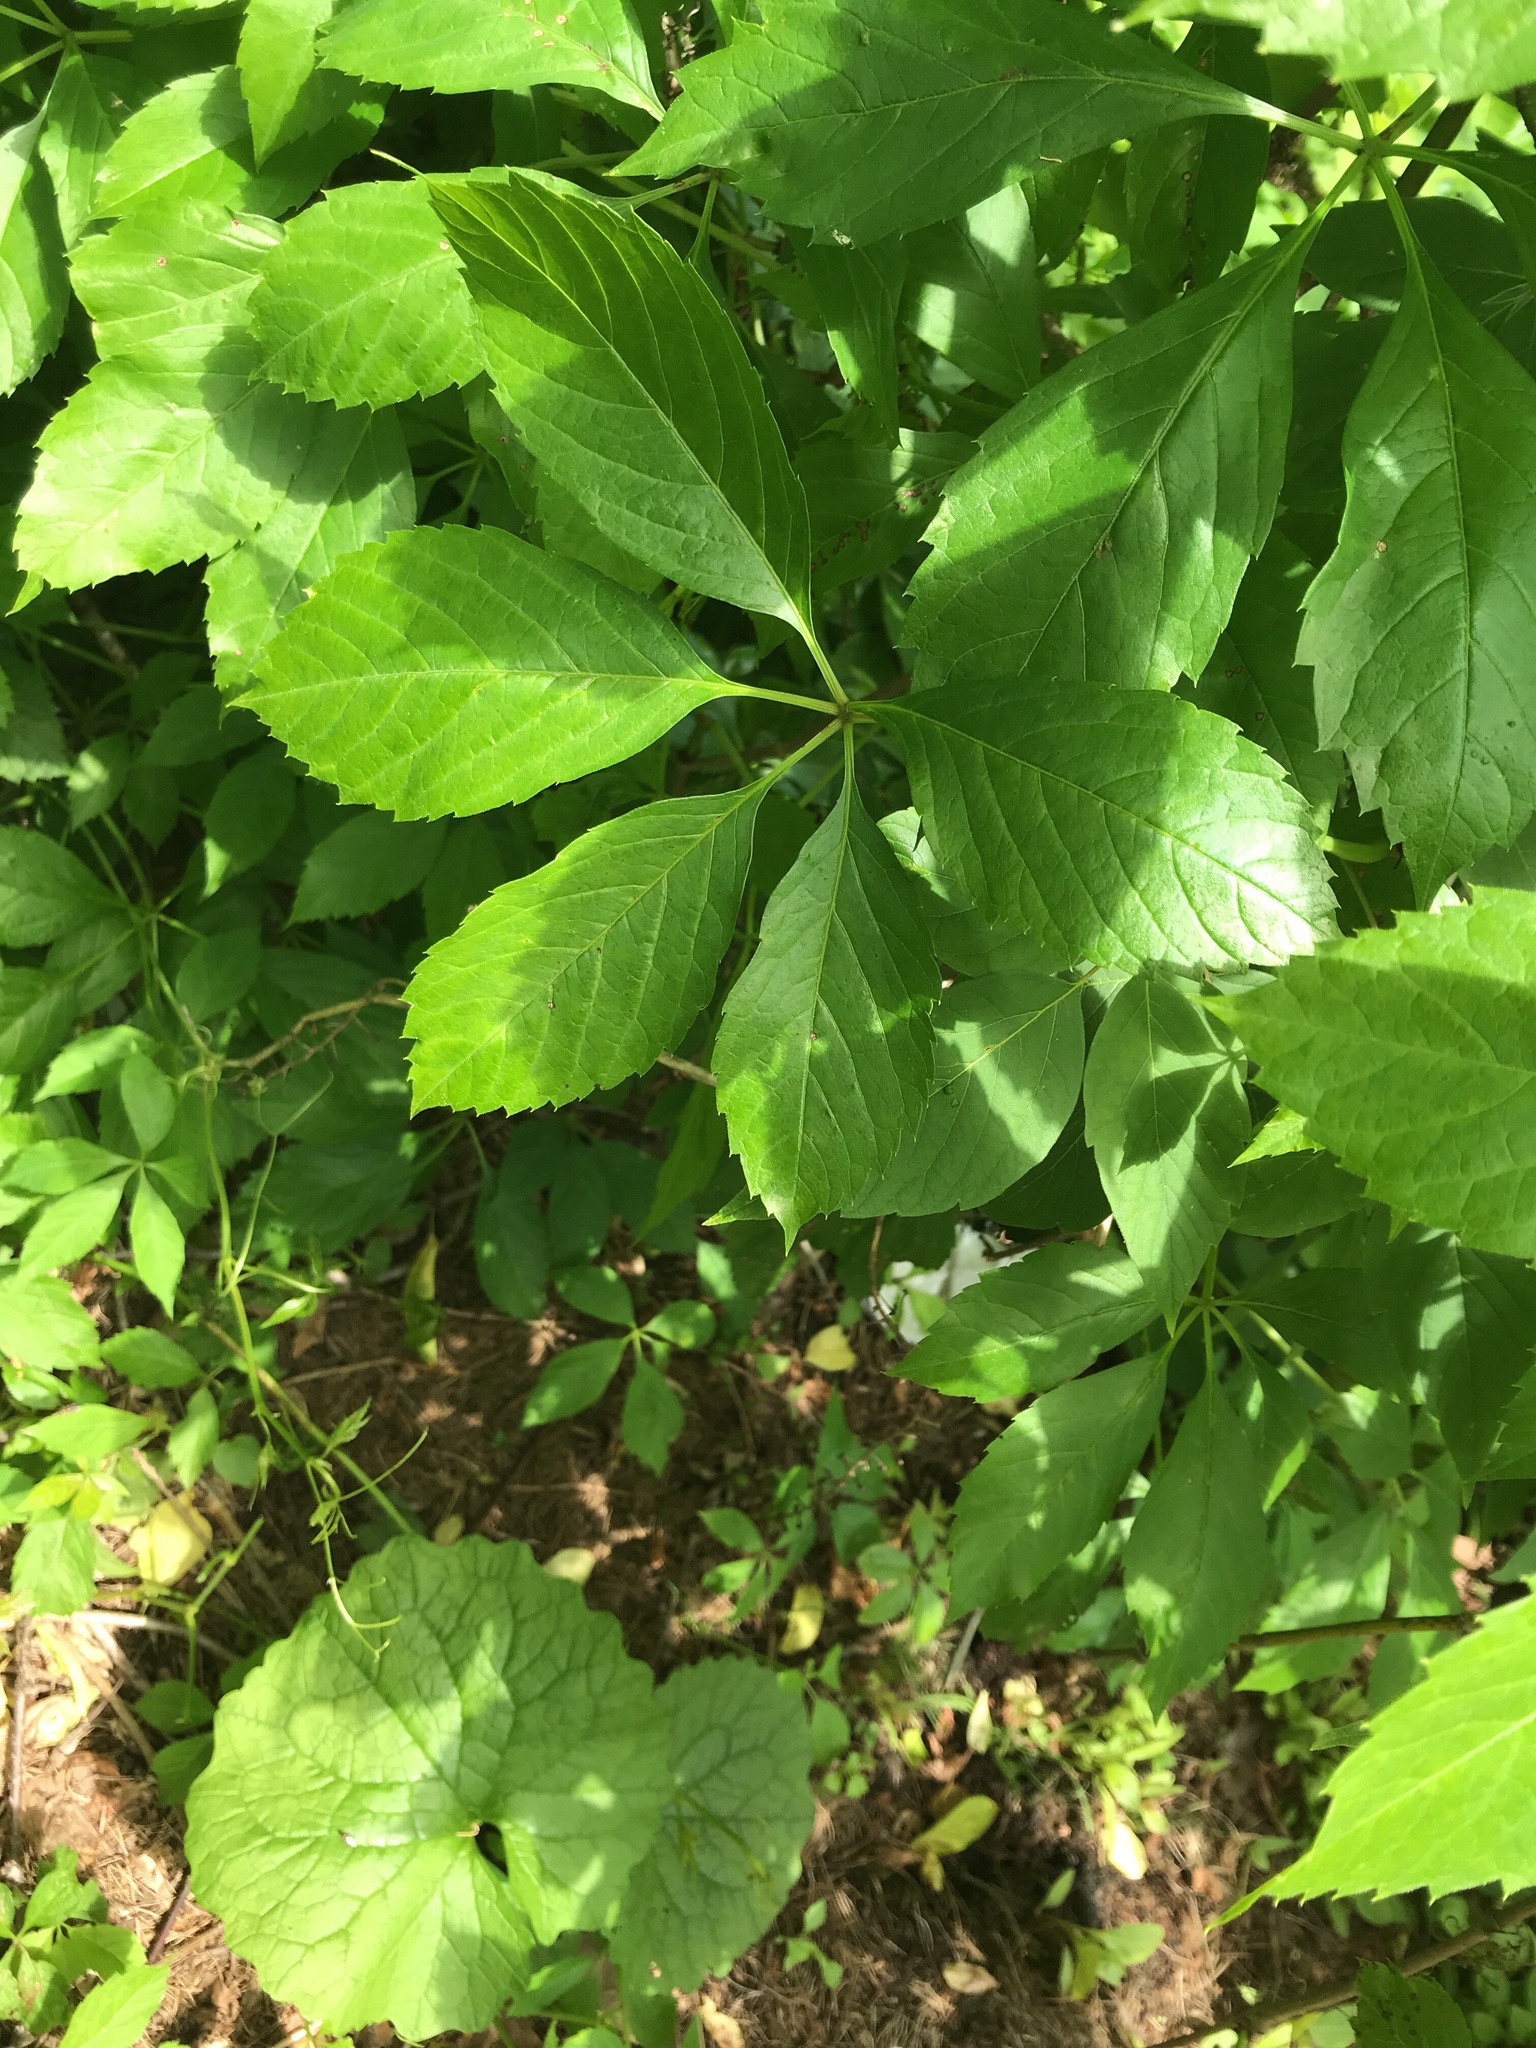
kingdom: Plantae
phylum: Tracheophyta
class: Magnoliopsida
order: Vitales
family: Vitaceae
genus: Parthenocissus
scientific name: Parthenocissus inserta
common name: False virginia-creeper
